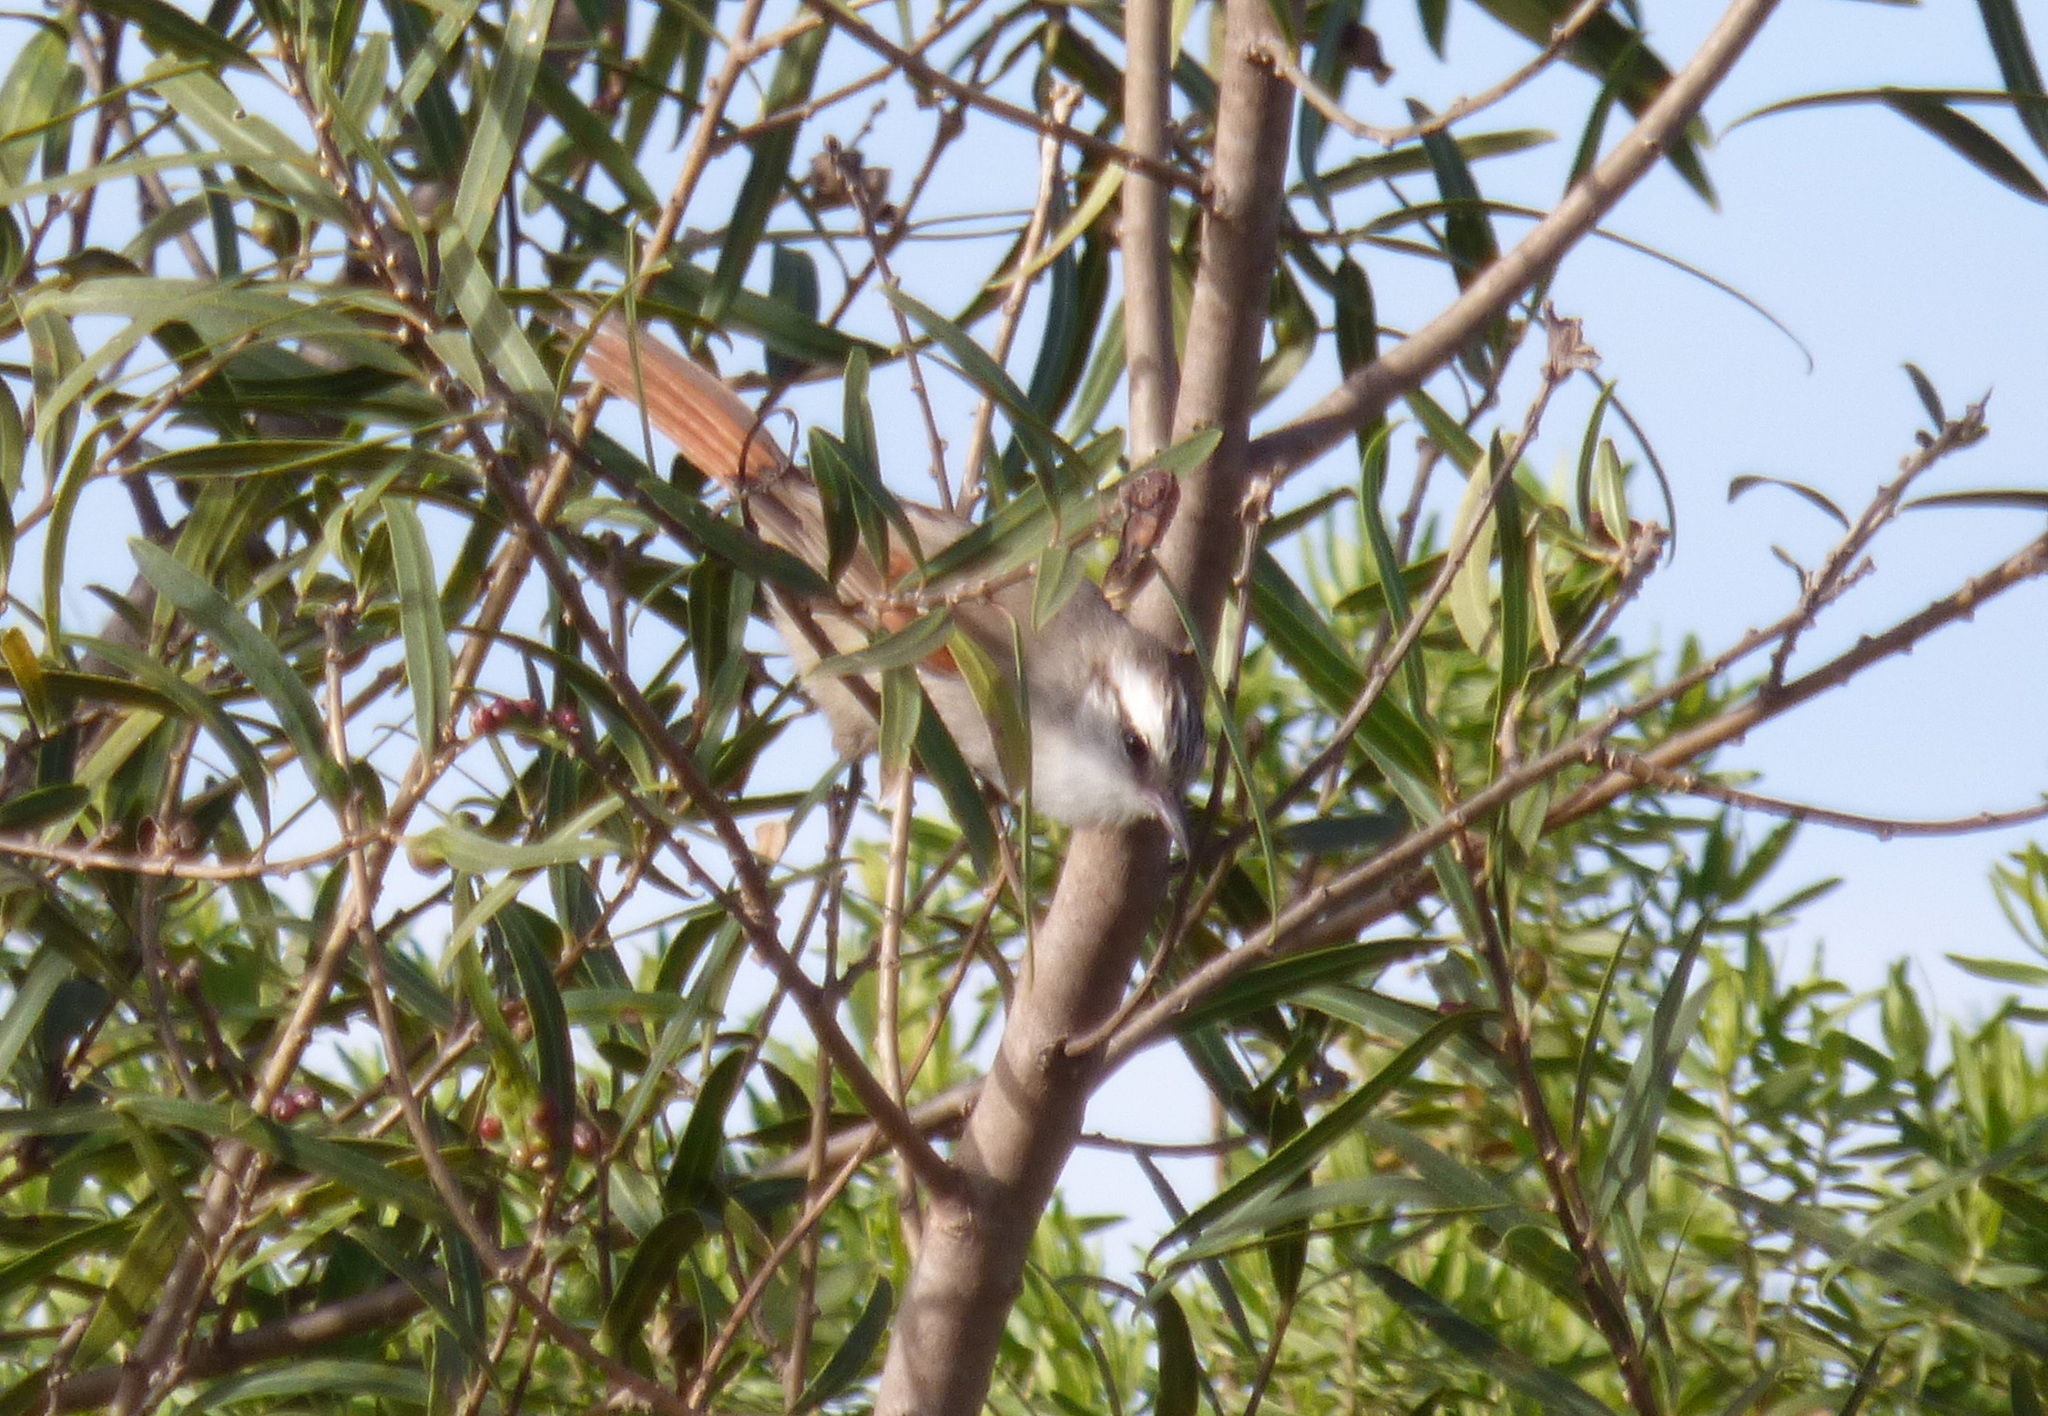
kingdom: Animalia
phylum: Chordata
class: Aves
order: Passeriformes
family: Furnariidae
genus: Cranioleuca
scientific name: Cranioleuca pyrrhophia
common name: Stripe-crowned spinetail
